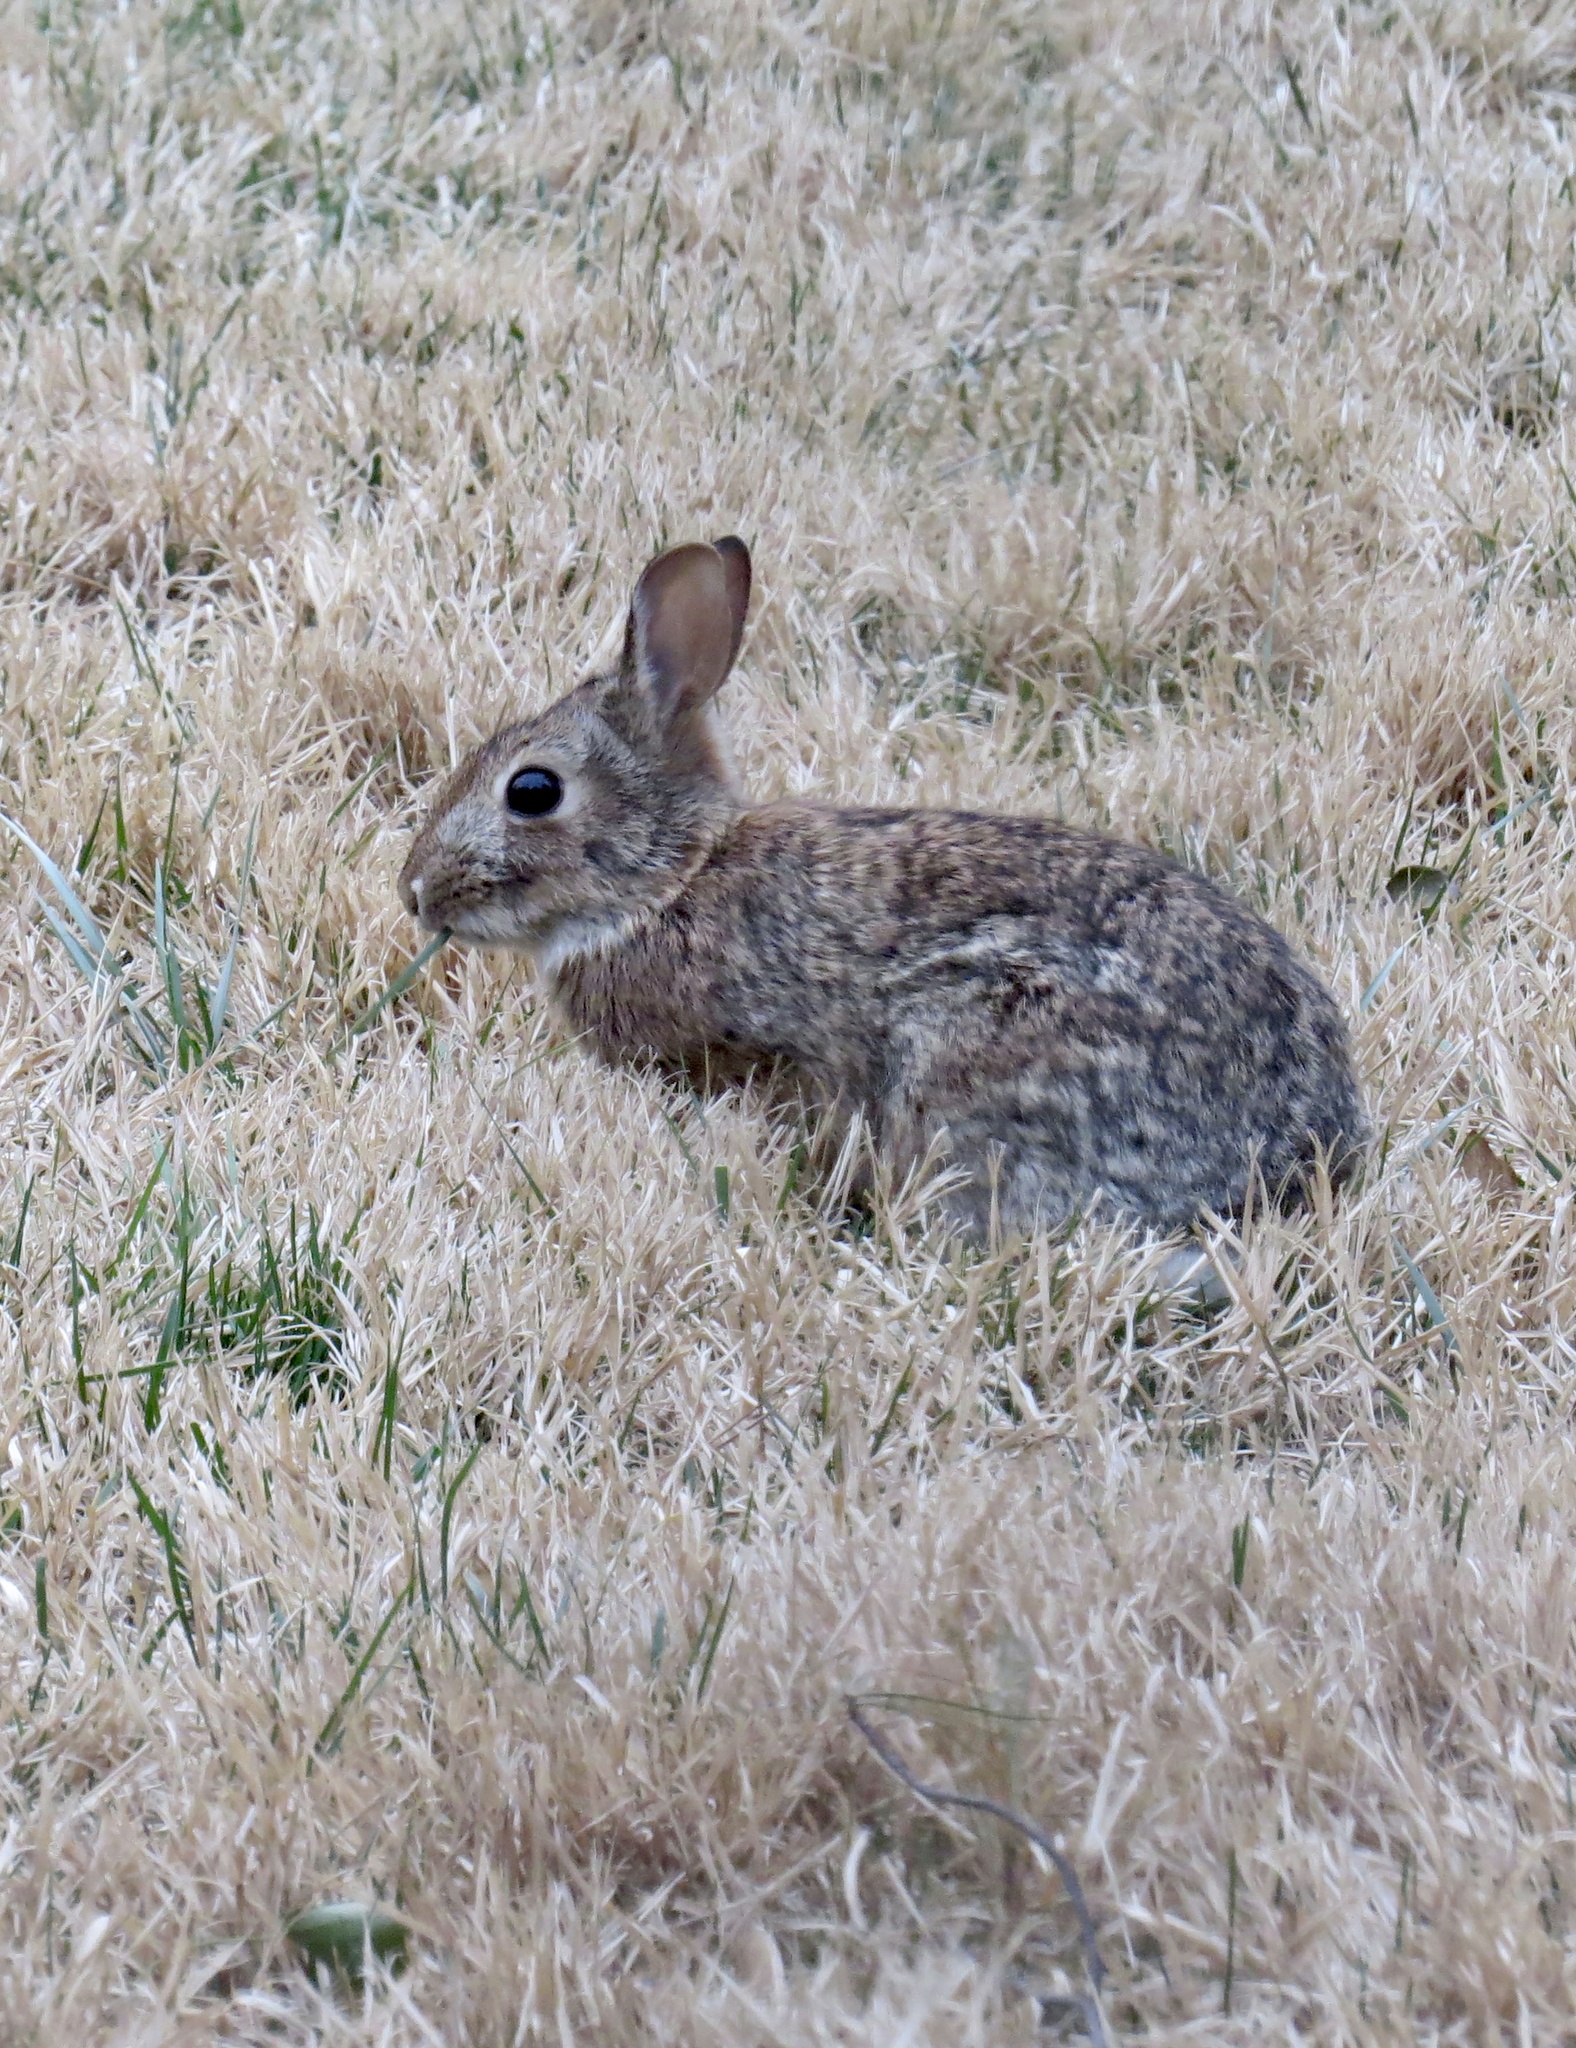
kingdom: Animalia
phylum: Chordata
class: Mammalia
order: Lagomorpha
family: Leporidae
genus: Sylvilagus
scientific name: Sylvilagus floridanus
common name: Eastern cottontail
